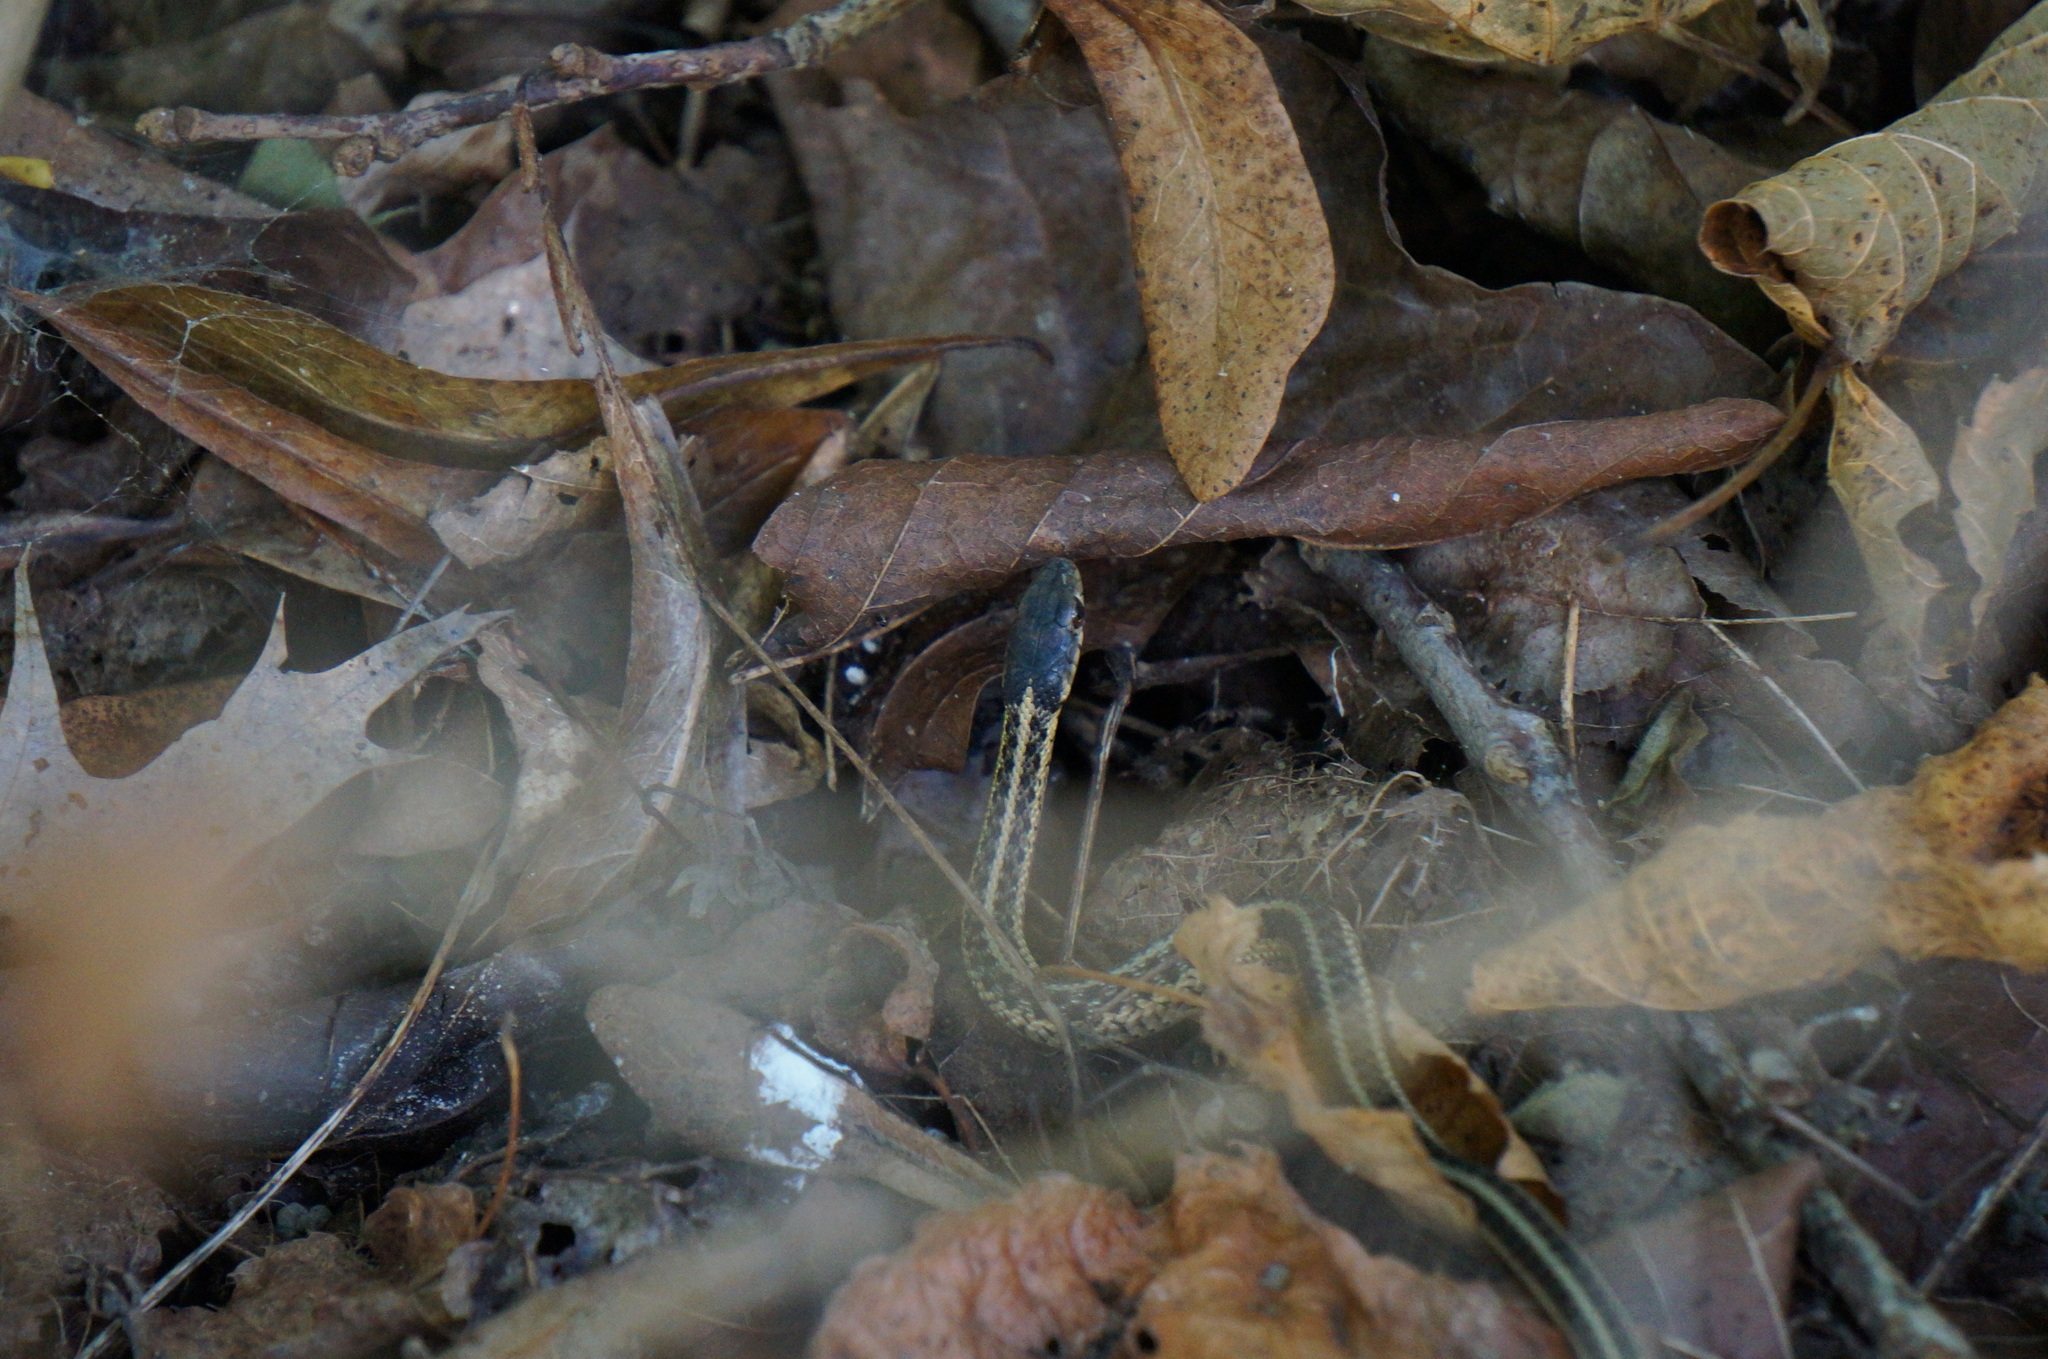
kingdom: Animalia
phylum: Chordata
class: Squamata
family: Colubridae
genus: Thamnophis
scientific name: Thamnophis sirtalis
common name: Common garter snake
